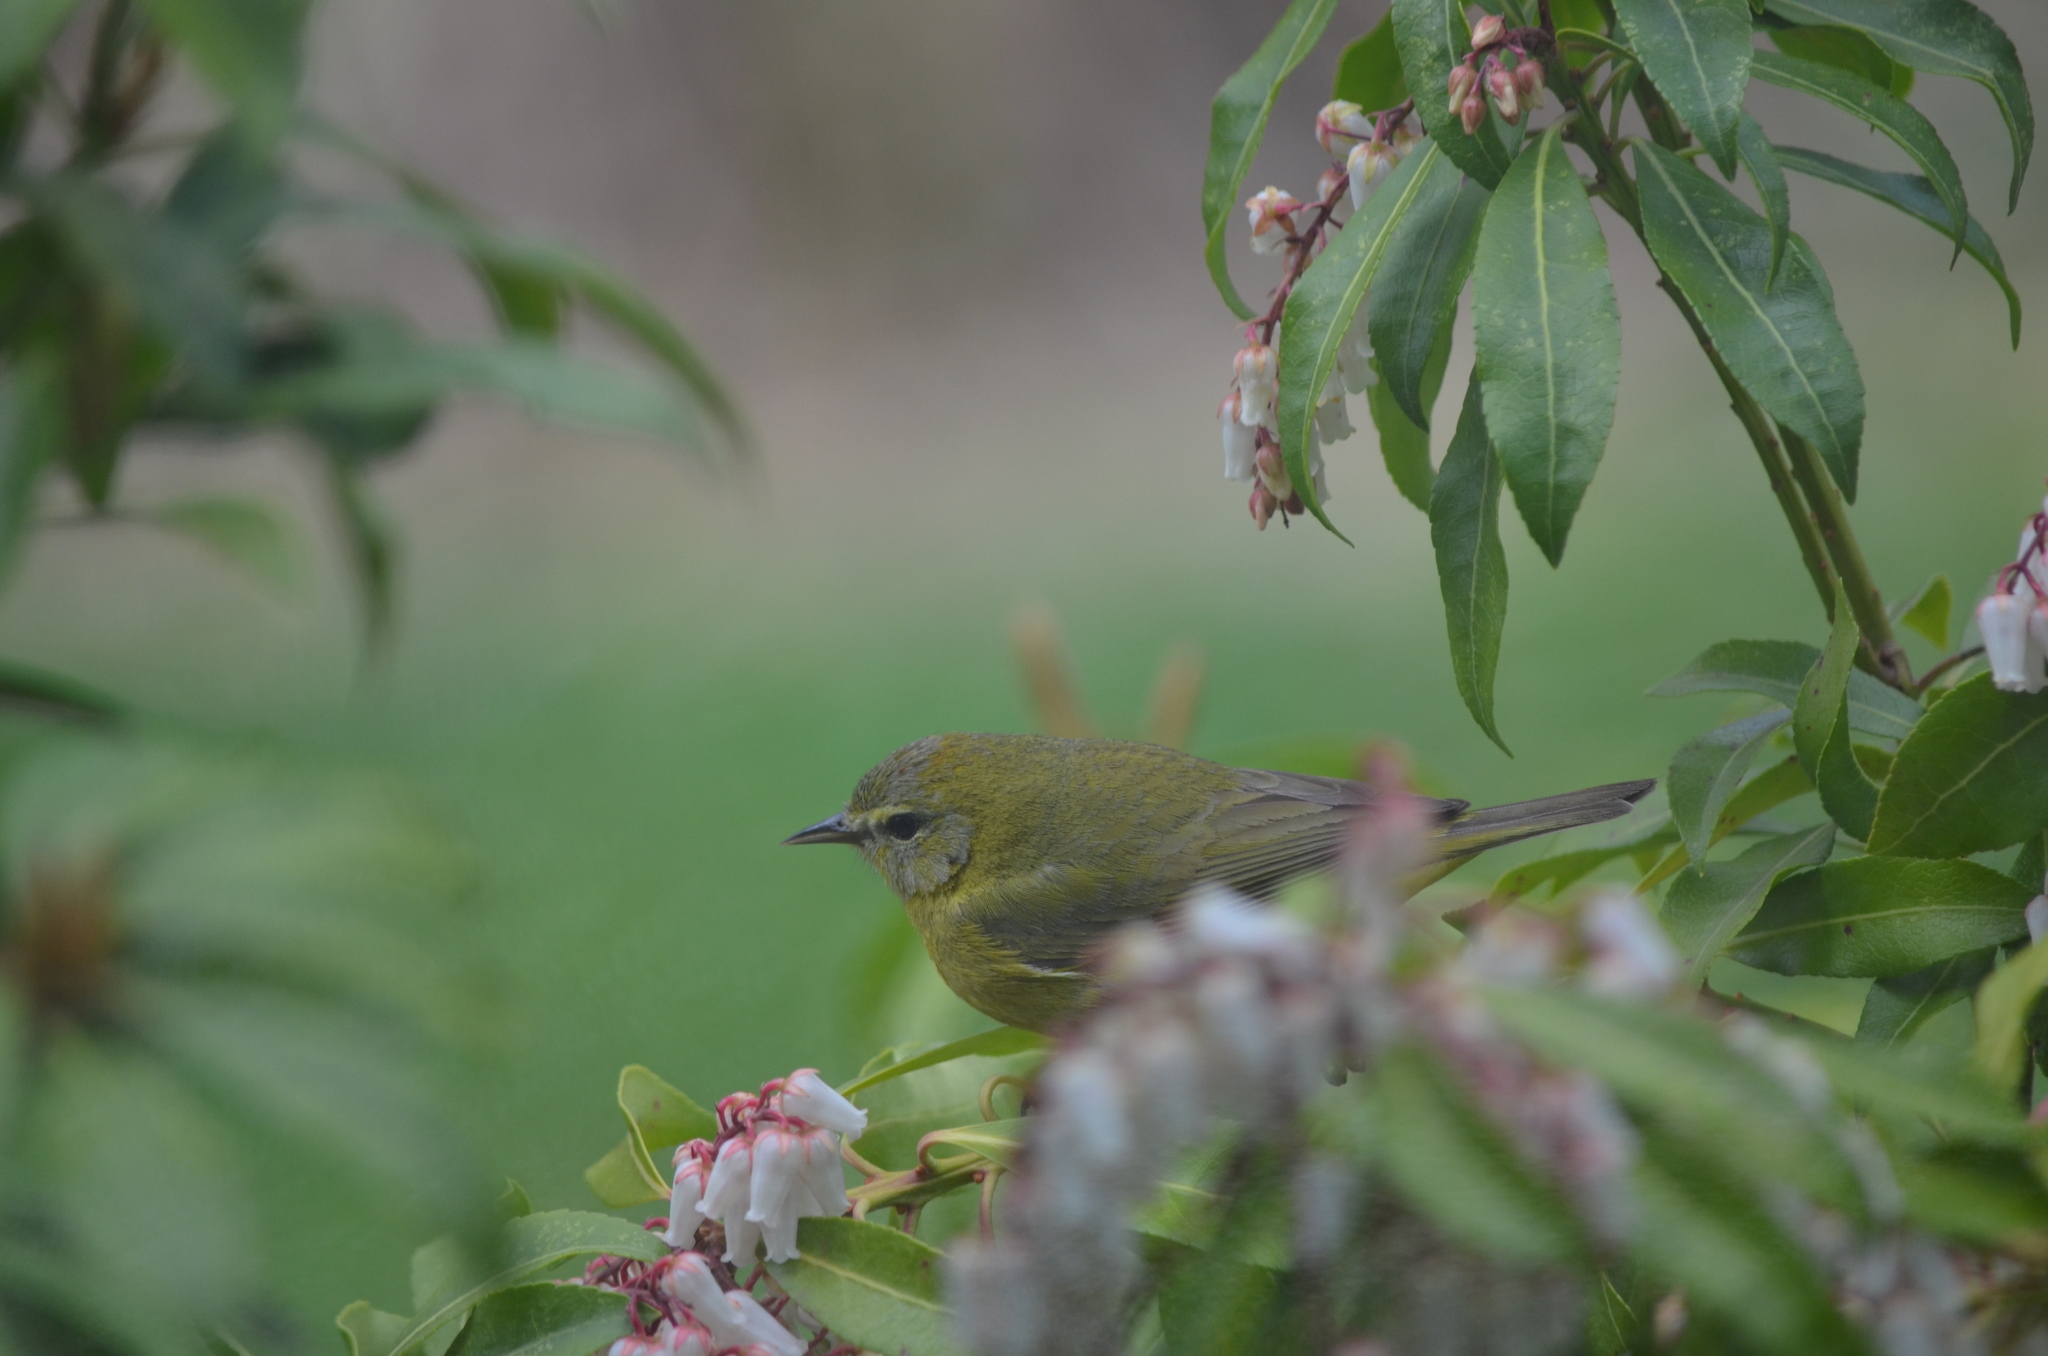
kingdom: Animalia
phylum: Chordata
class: Aves
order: Passeriformes
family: Parulidae
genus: Leiothlypis
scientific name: Leiothlypis celata
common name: Orange-crowned warbler
